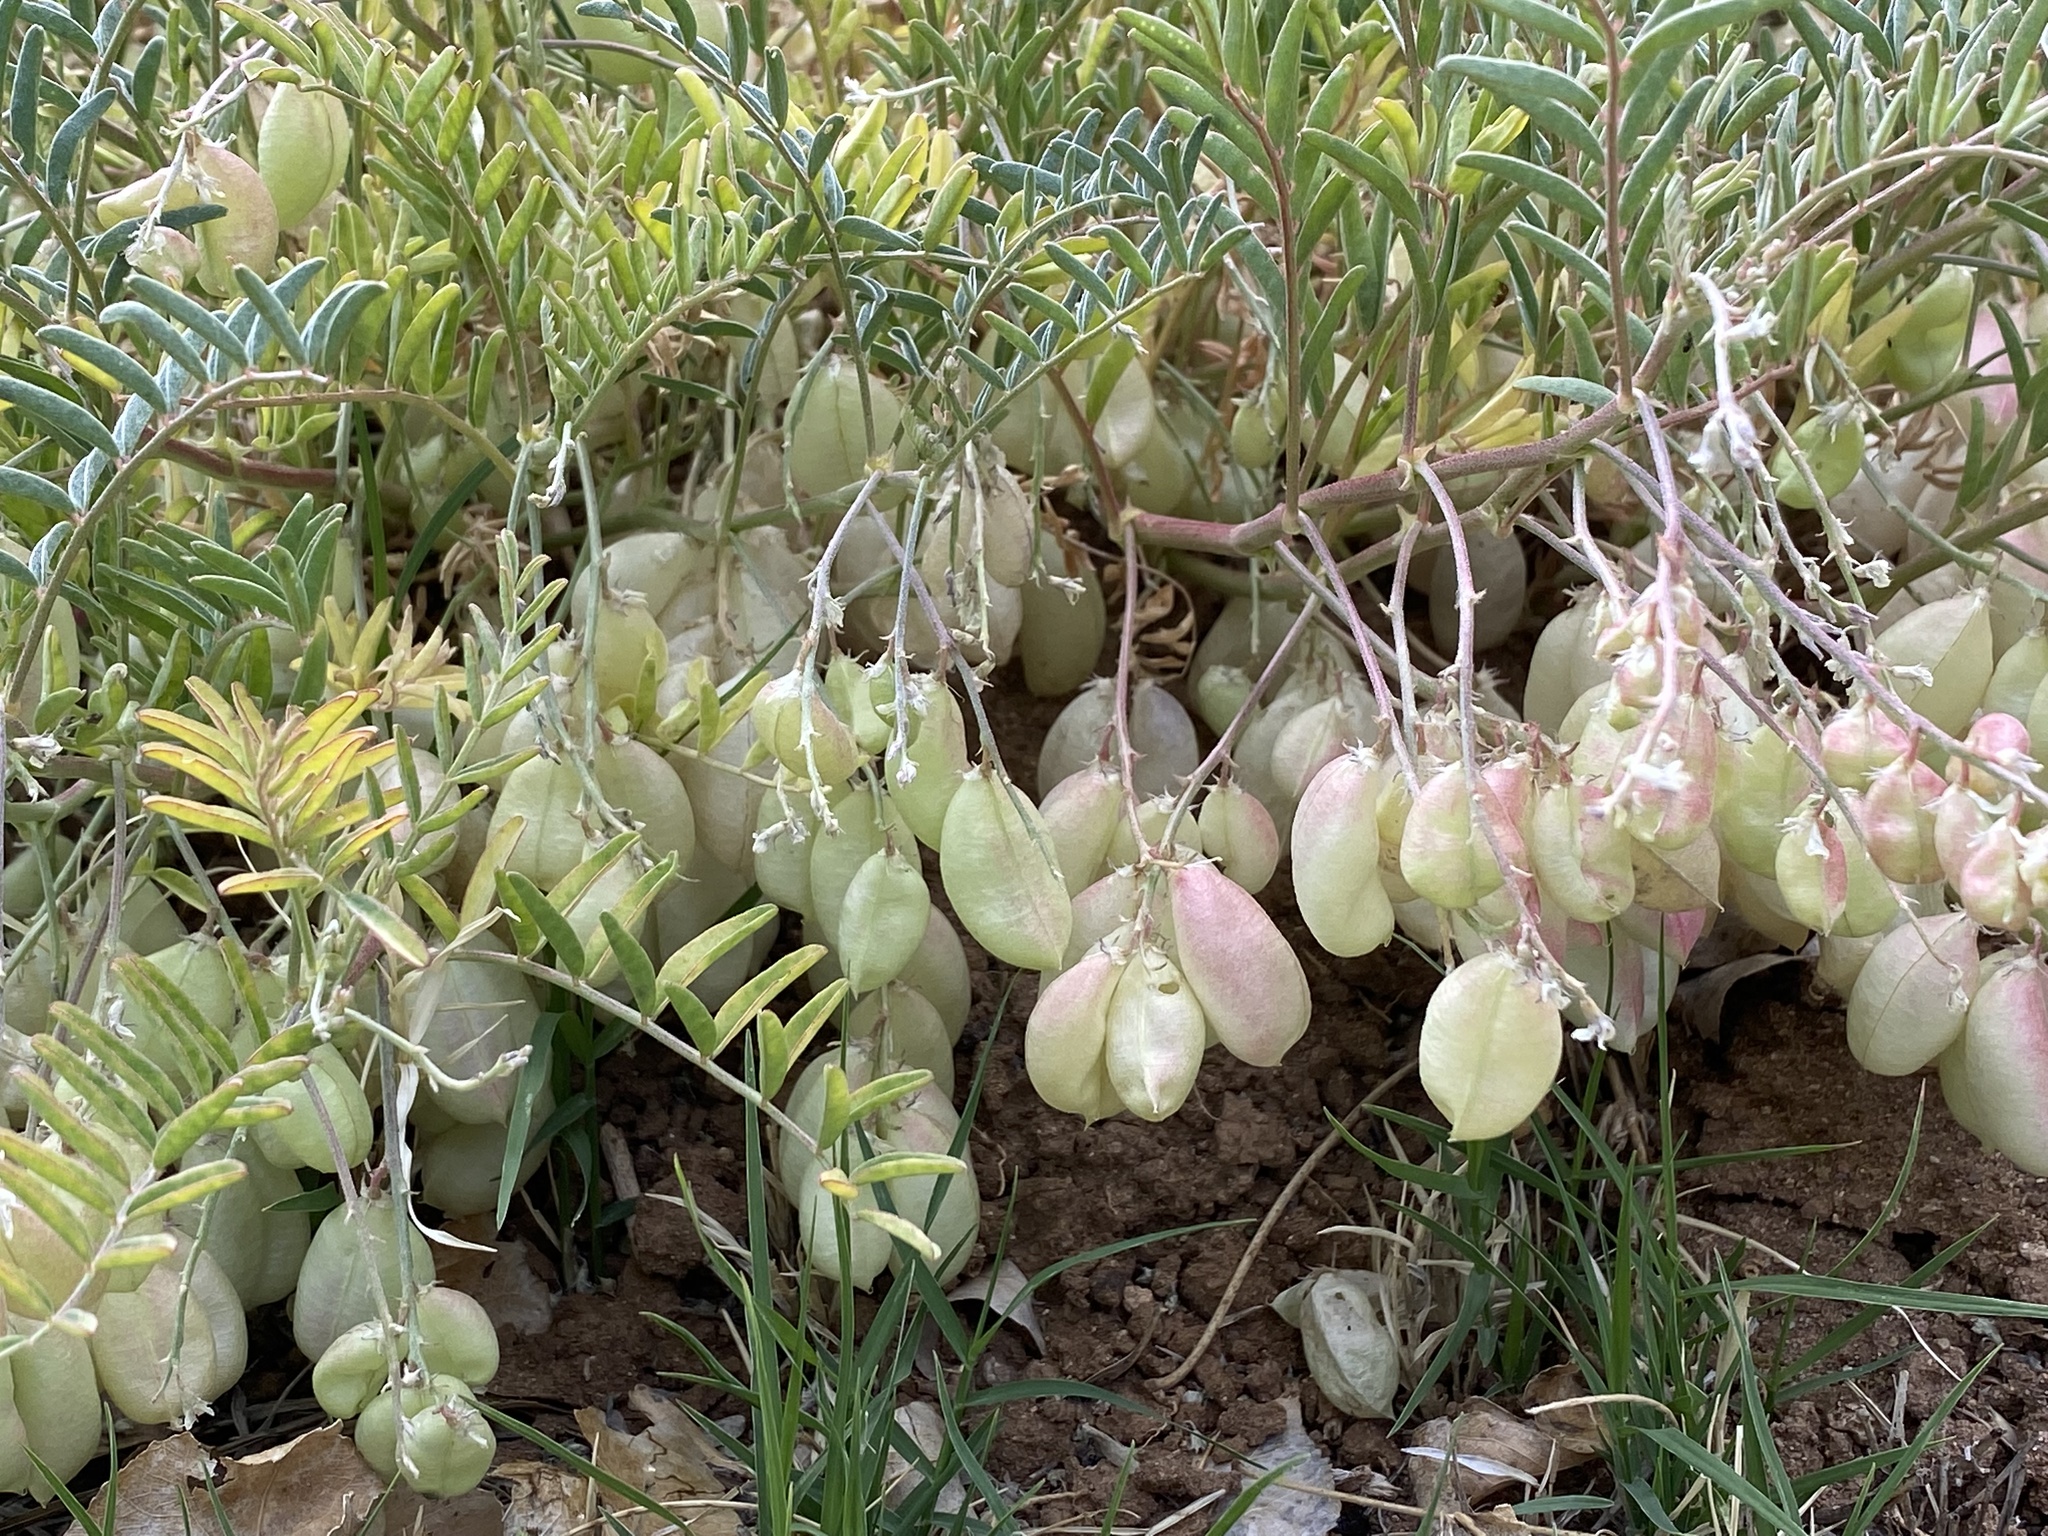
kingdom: Plantae
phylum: Tracheophyta
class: Magnoliopsida
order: Fabales
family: Fabaceae
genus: Astragalus
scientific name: Astragalus allochrous
